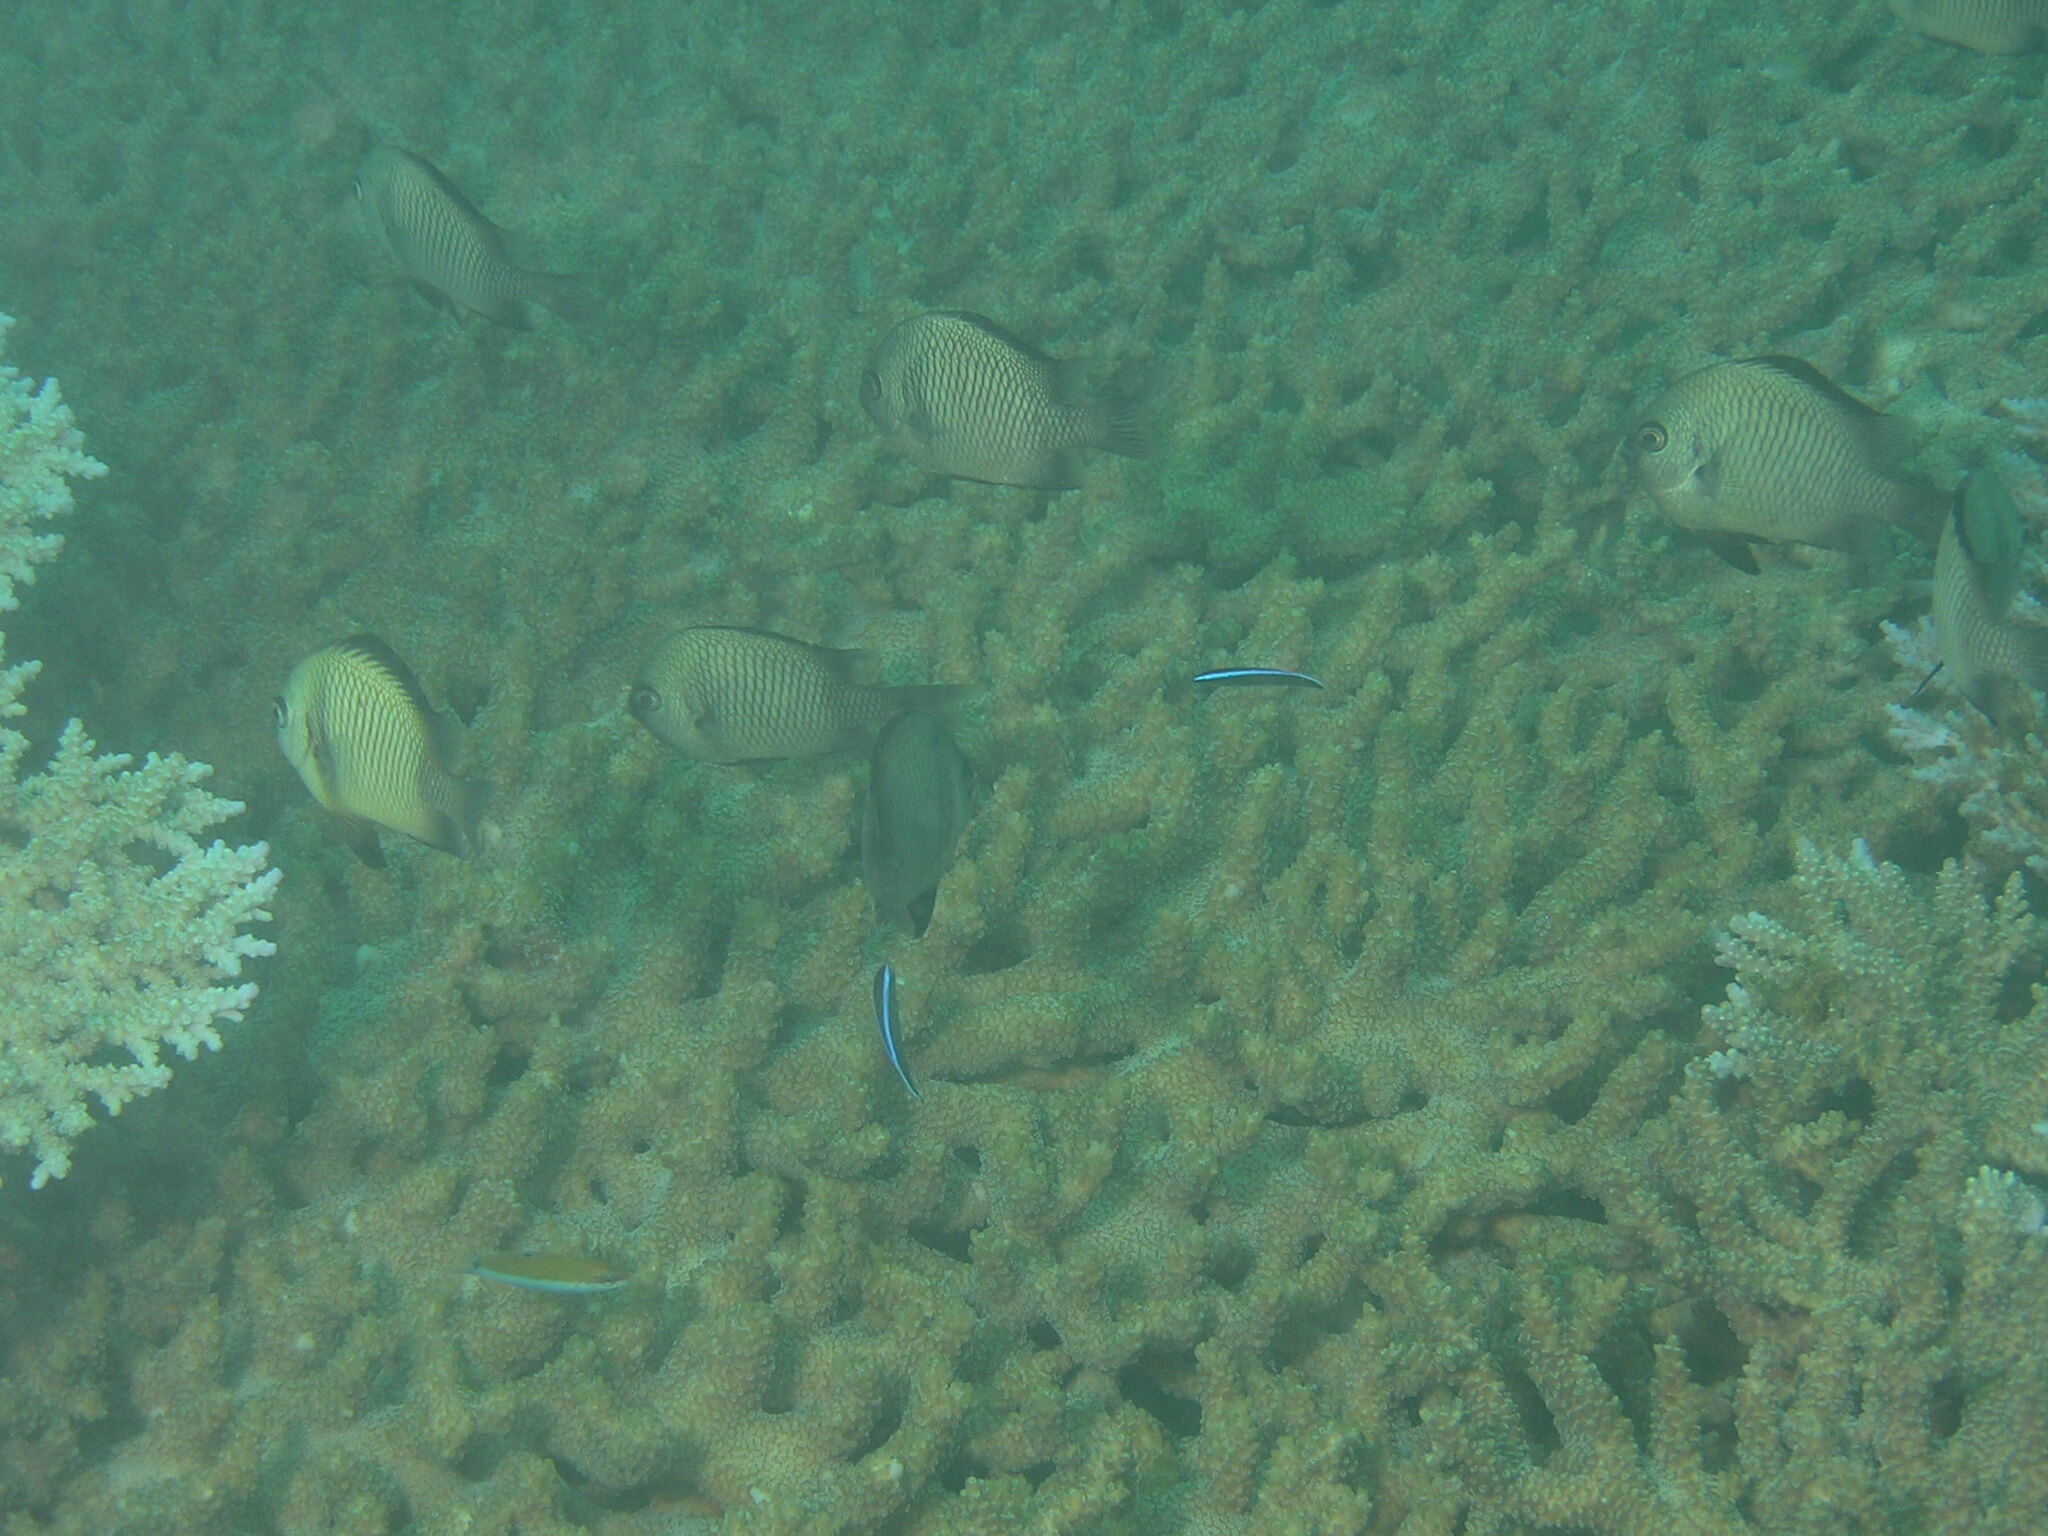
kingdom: Animalia
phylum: Chordata
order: Perciformes
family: Labridae
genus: Thalassoma
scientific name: Thalassoma lunare
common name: Blue wrasse
